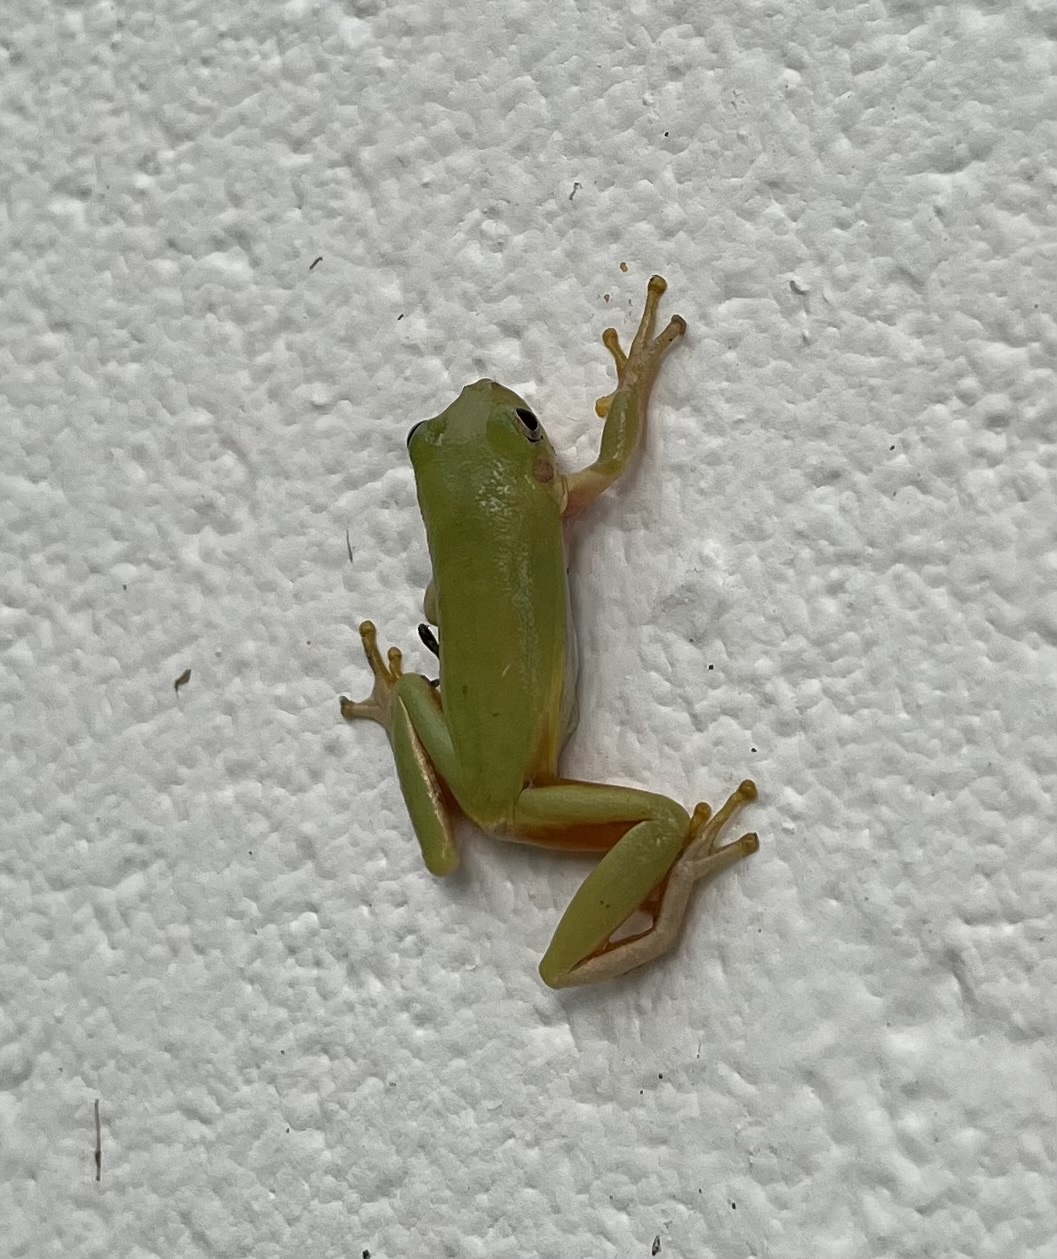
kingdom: Animalia
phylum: Chordata
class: Amphibia
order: Anura
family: Hylidae
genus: Dryophytes
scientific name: Dryophytes squirellus
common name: Squirrel treefrog
